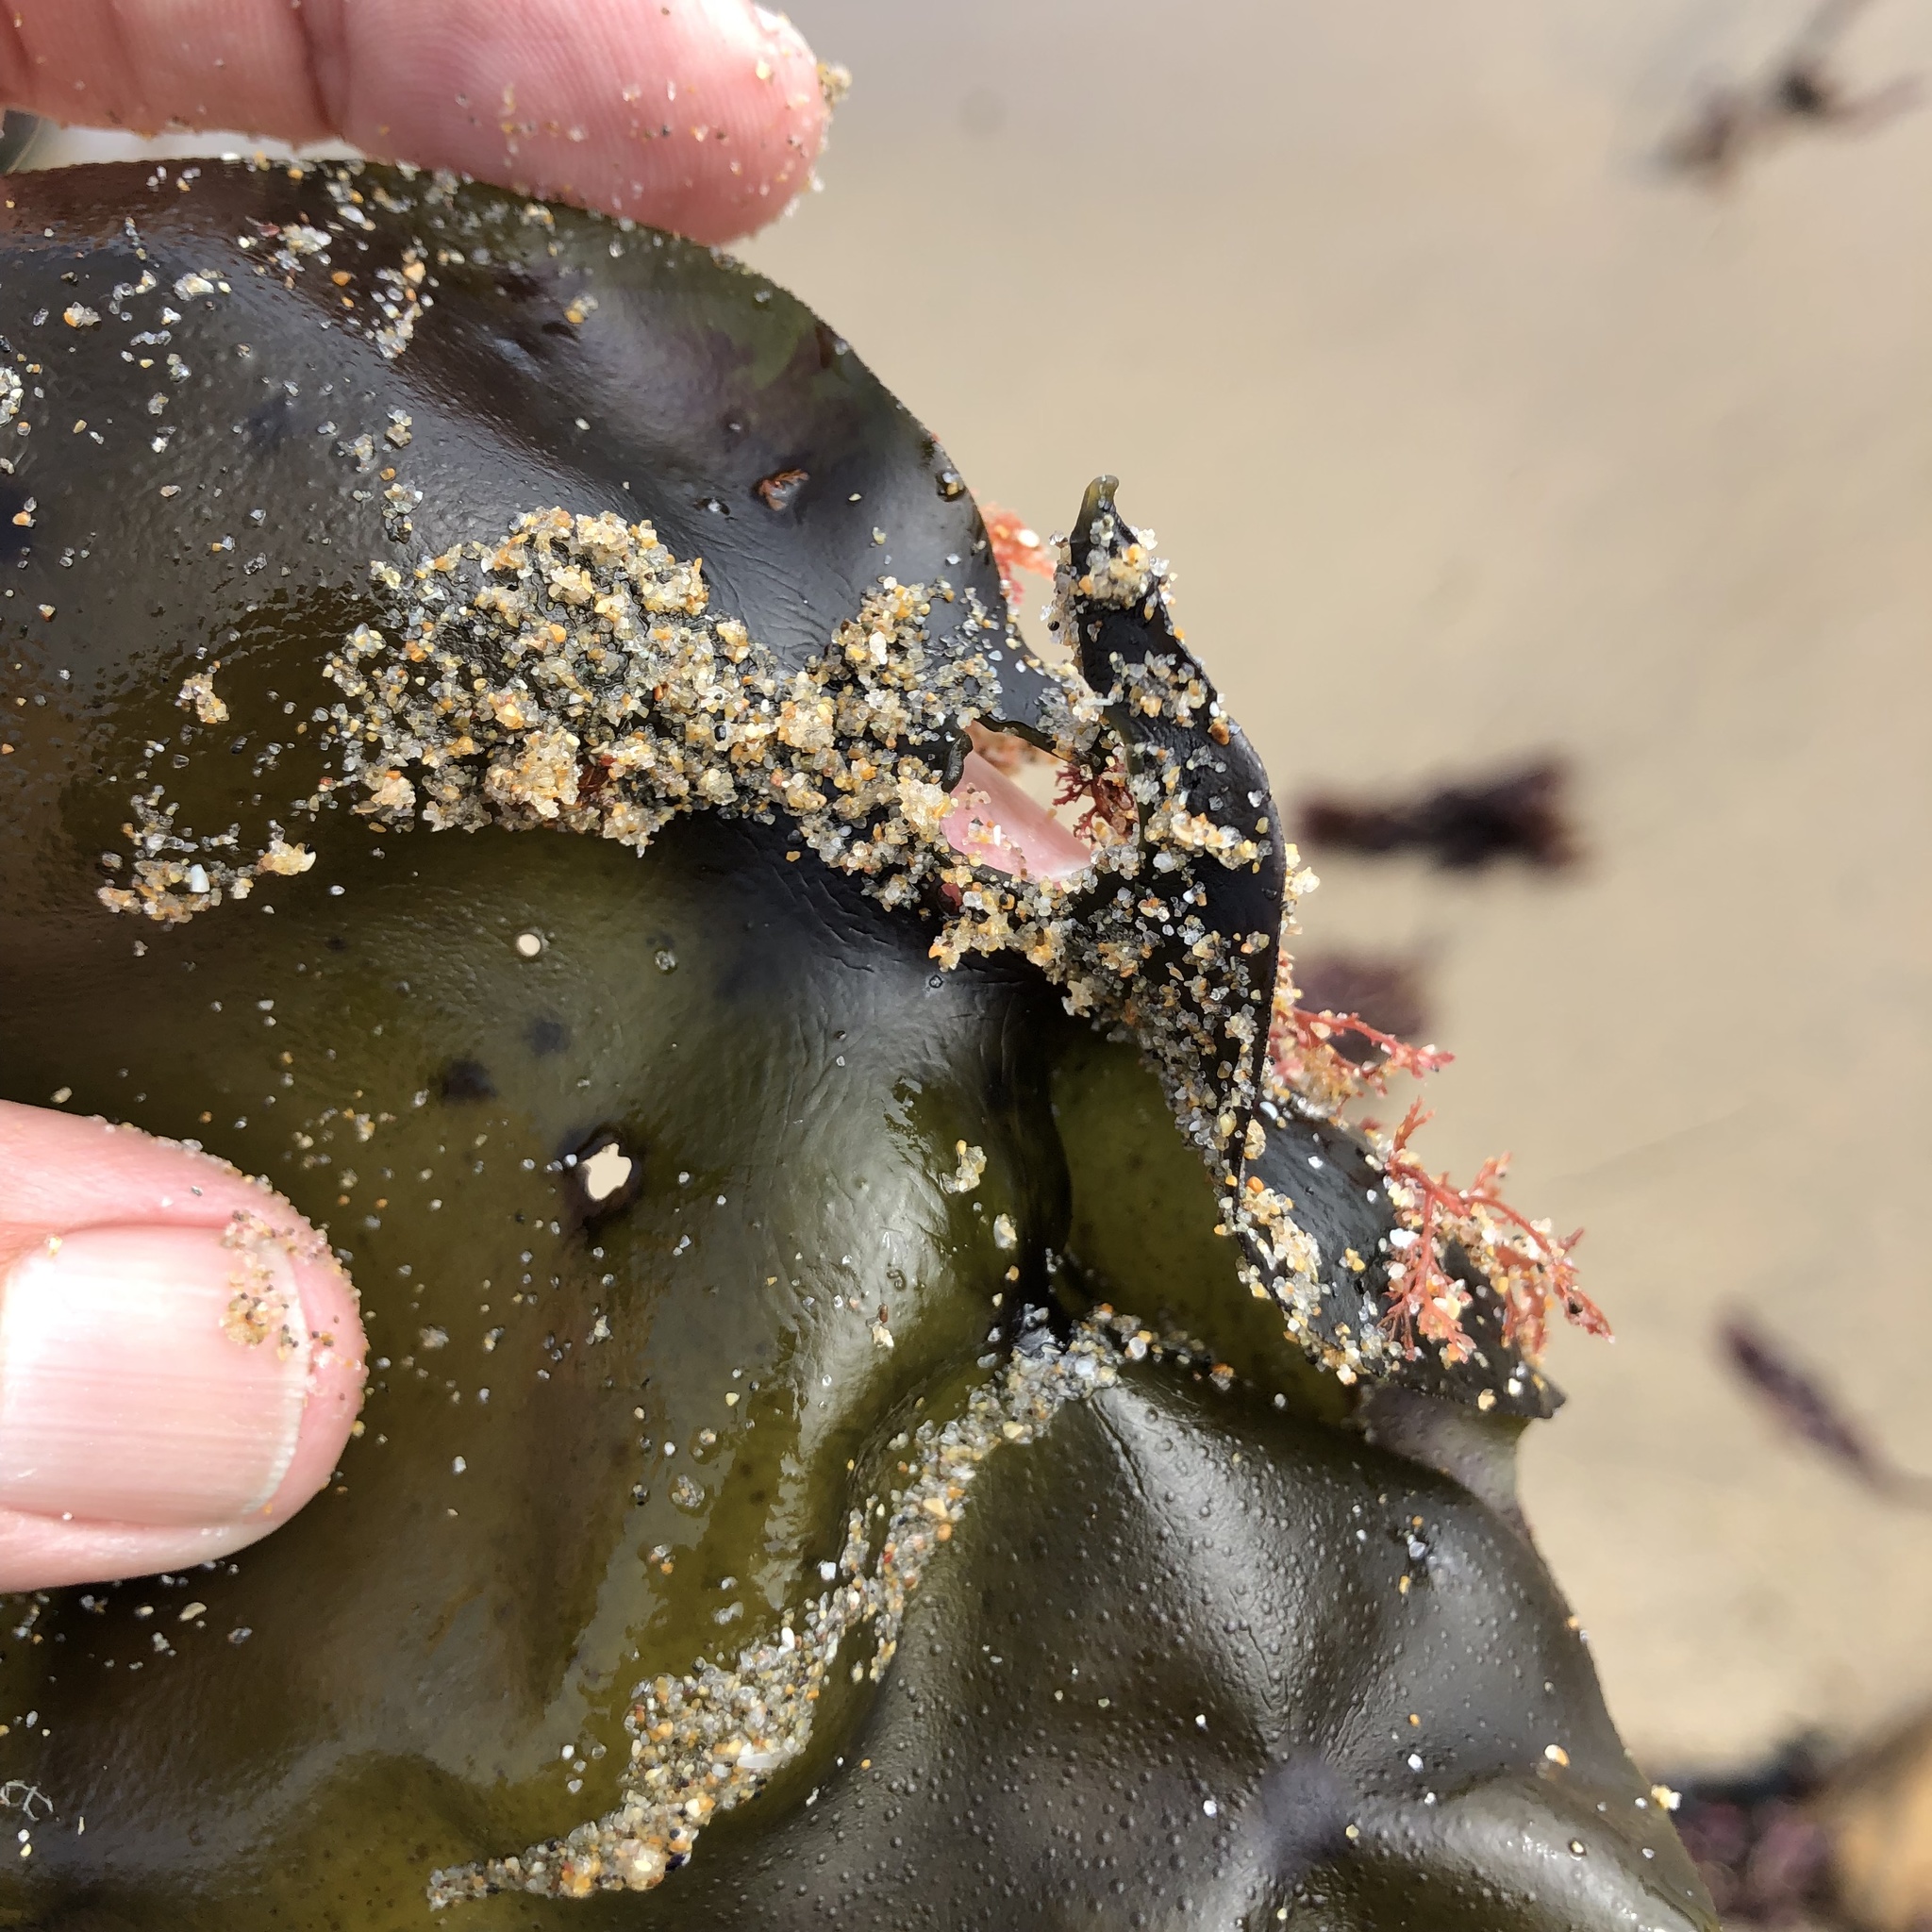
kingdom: Plantae
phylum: Rhodophyta
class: Florideophyceae
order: Gigartinales
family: Gigartinaceae
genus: Mazzaella
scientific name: Mazzaella flaccida
